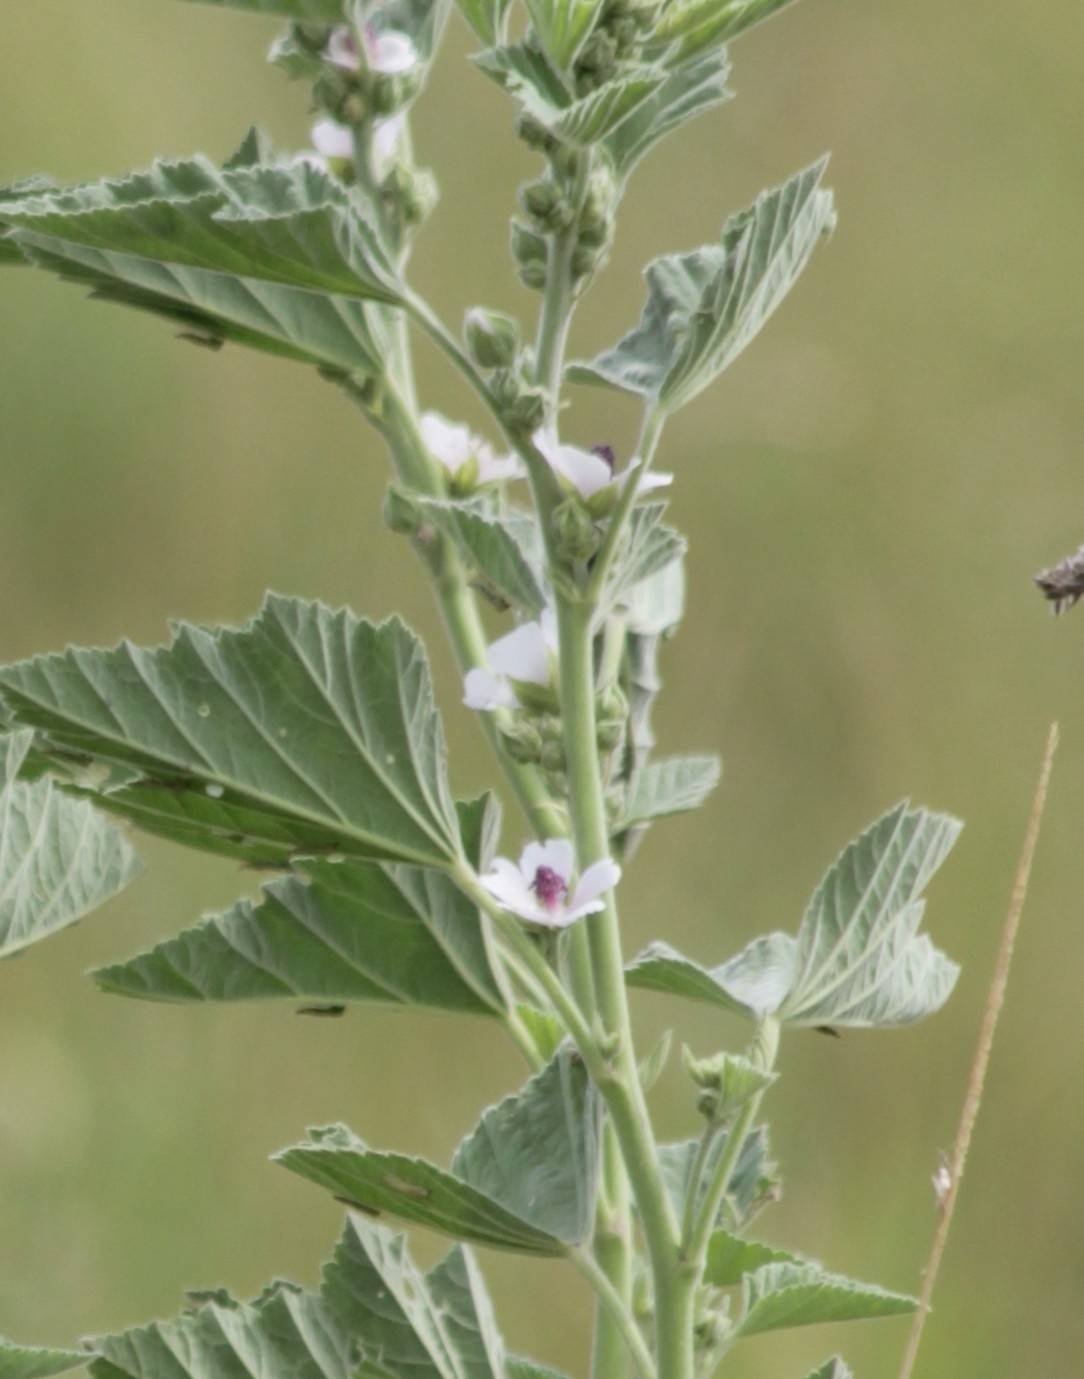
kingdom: Plantae
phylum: Tracheophyta
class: Magnoliopsida
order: Malvales
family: Malvaceae
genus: Althaea
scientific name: Althaea officinalis
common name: Marsh-mallow
